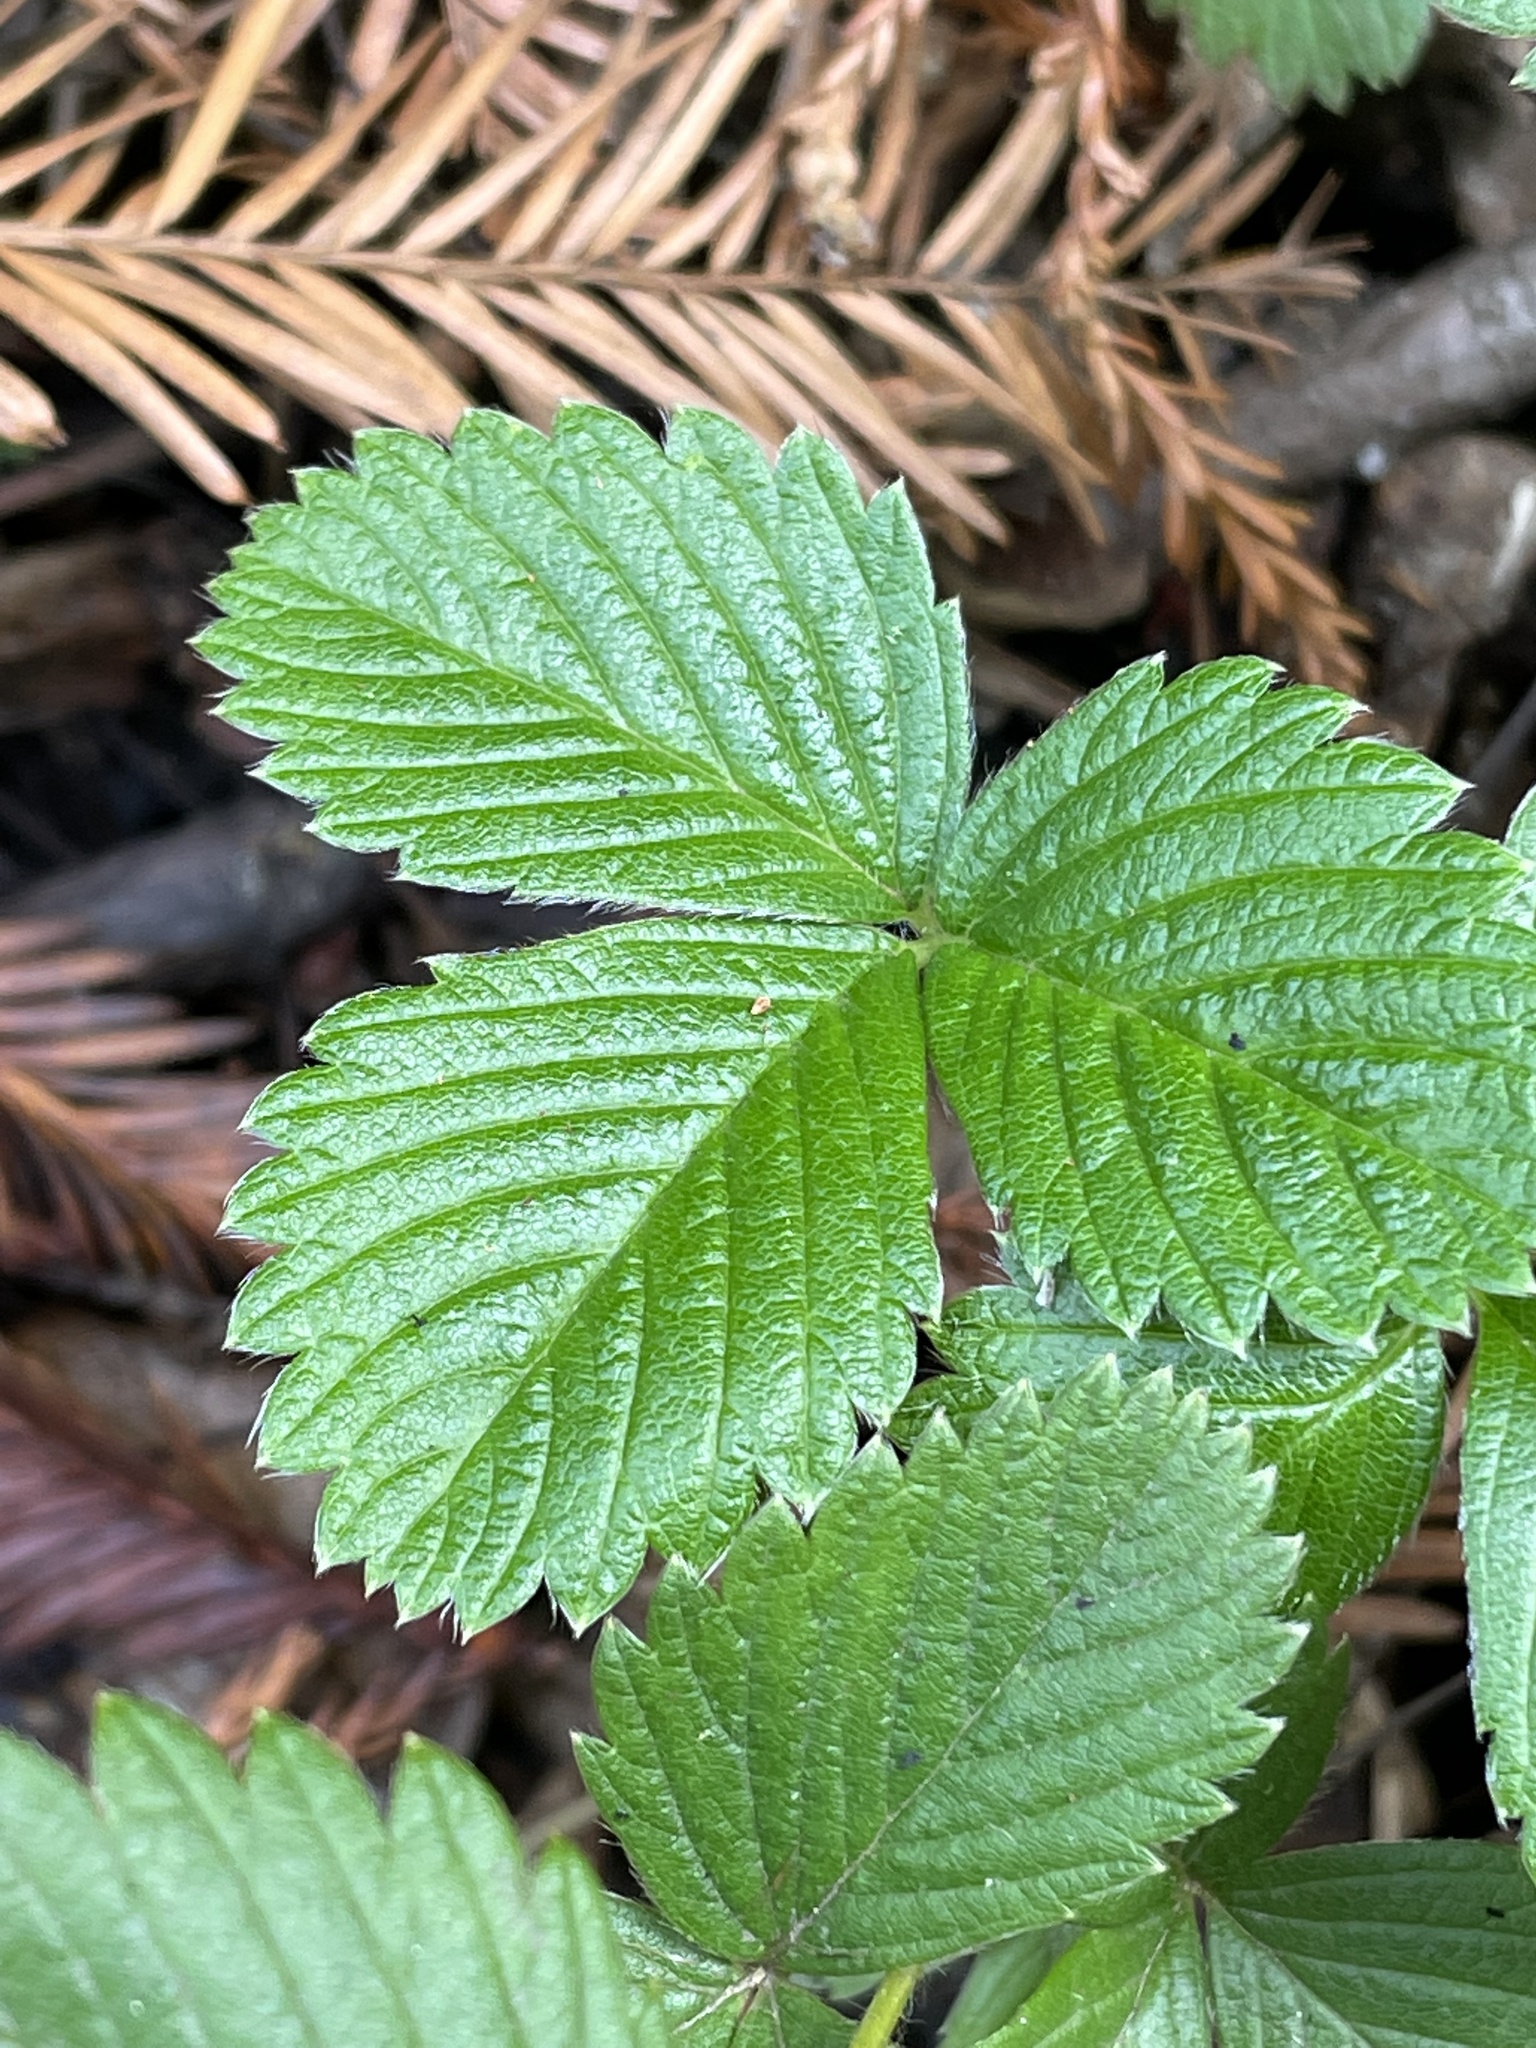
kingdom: Plantae
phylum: Tracheophyta
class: Magnoliopsida
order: Rosales
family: Rosaceae
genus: Fragaria
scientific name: Fragaria vesca
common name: Wild strawberry
